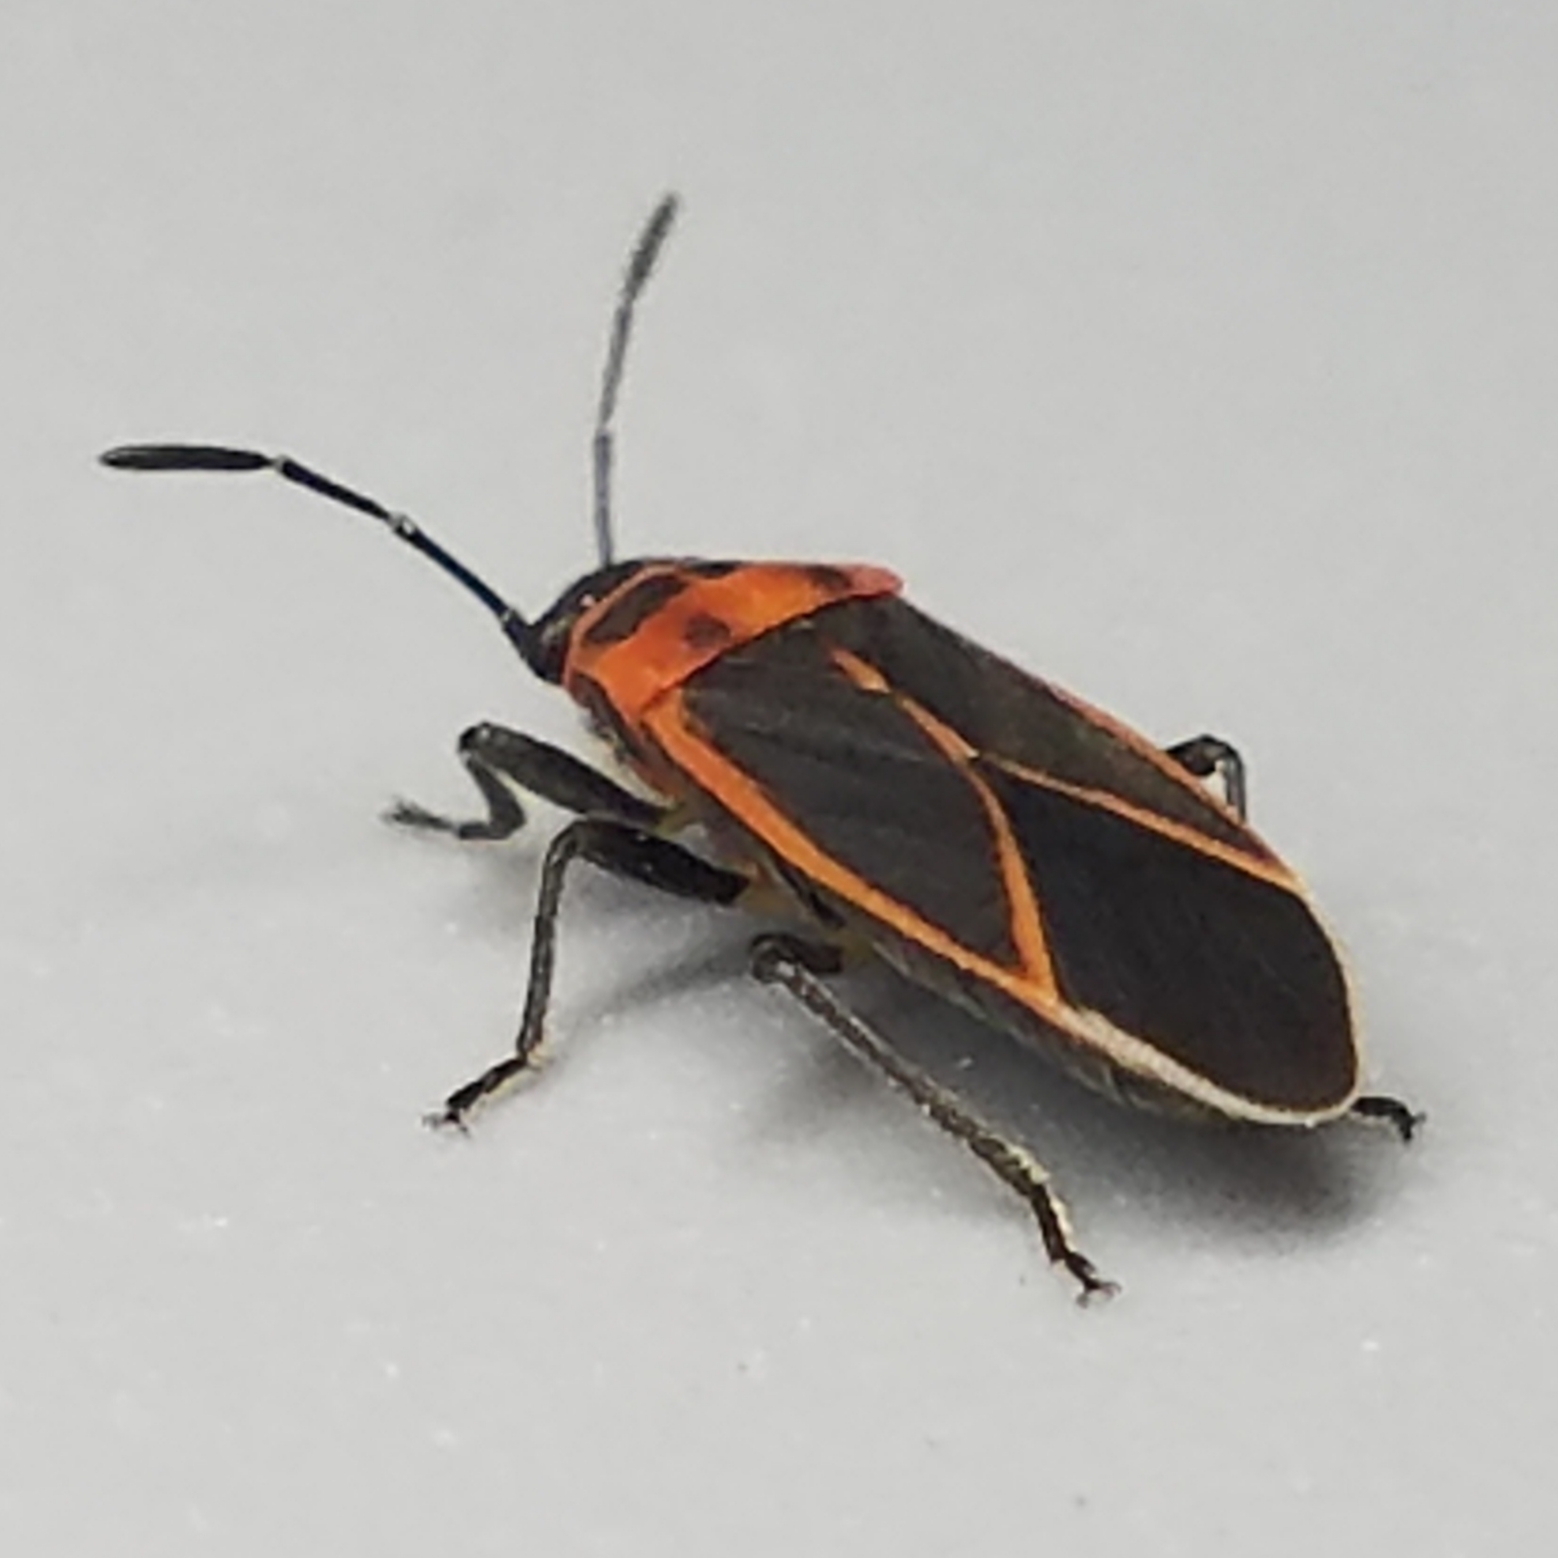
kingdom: Animalia
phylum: Arthropoda
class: Insecta
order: Hemiptera
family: Lygaeidae
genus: Ochrimnus
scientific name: Ochrimnus lineoloides
